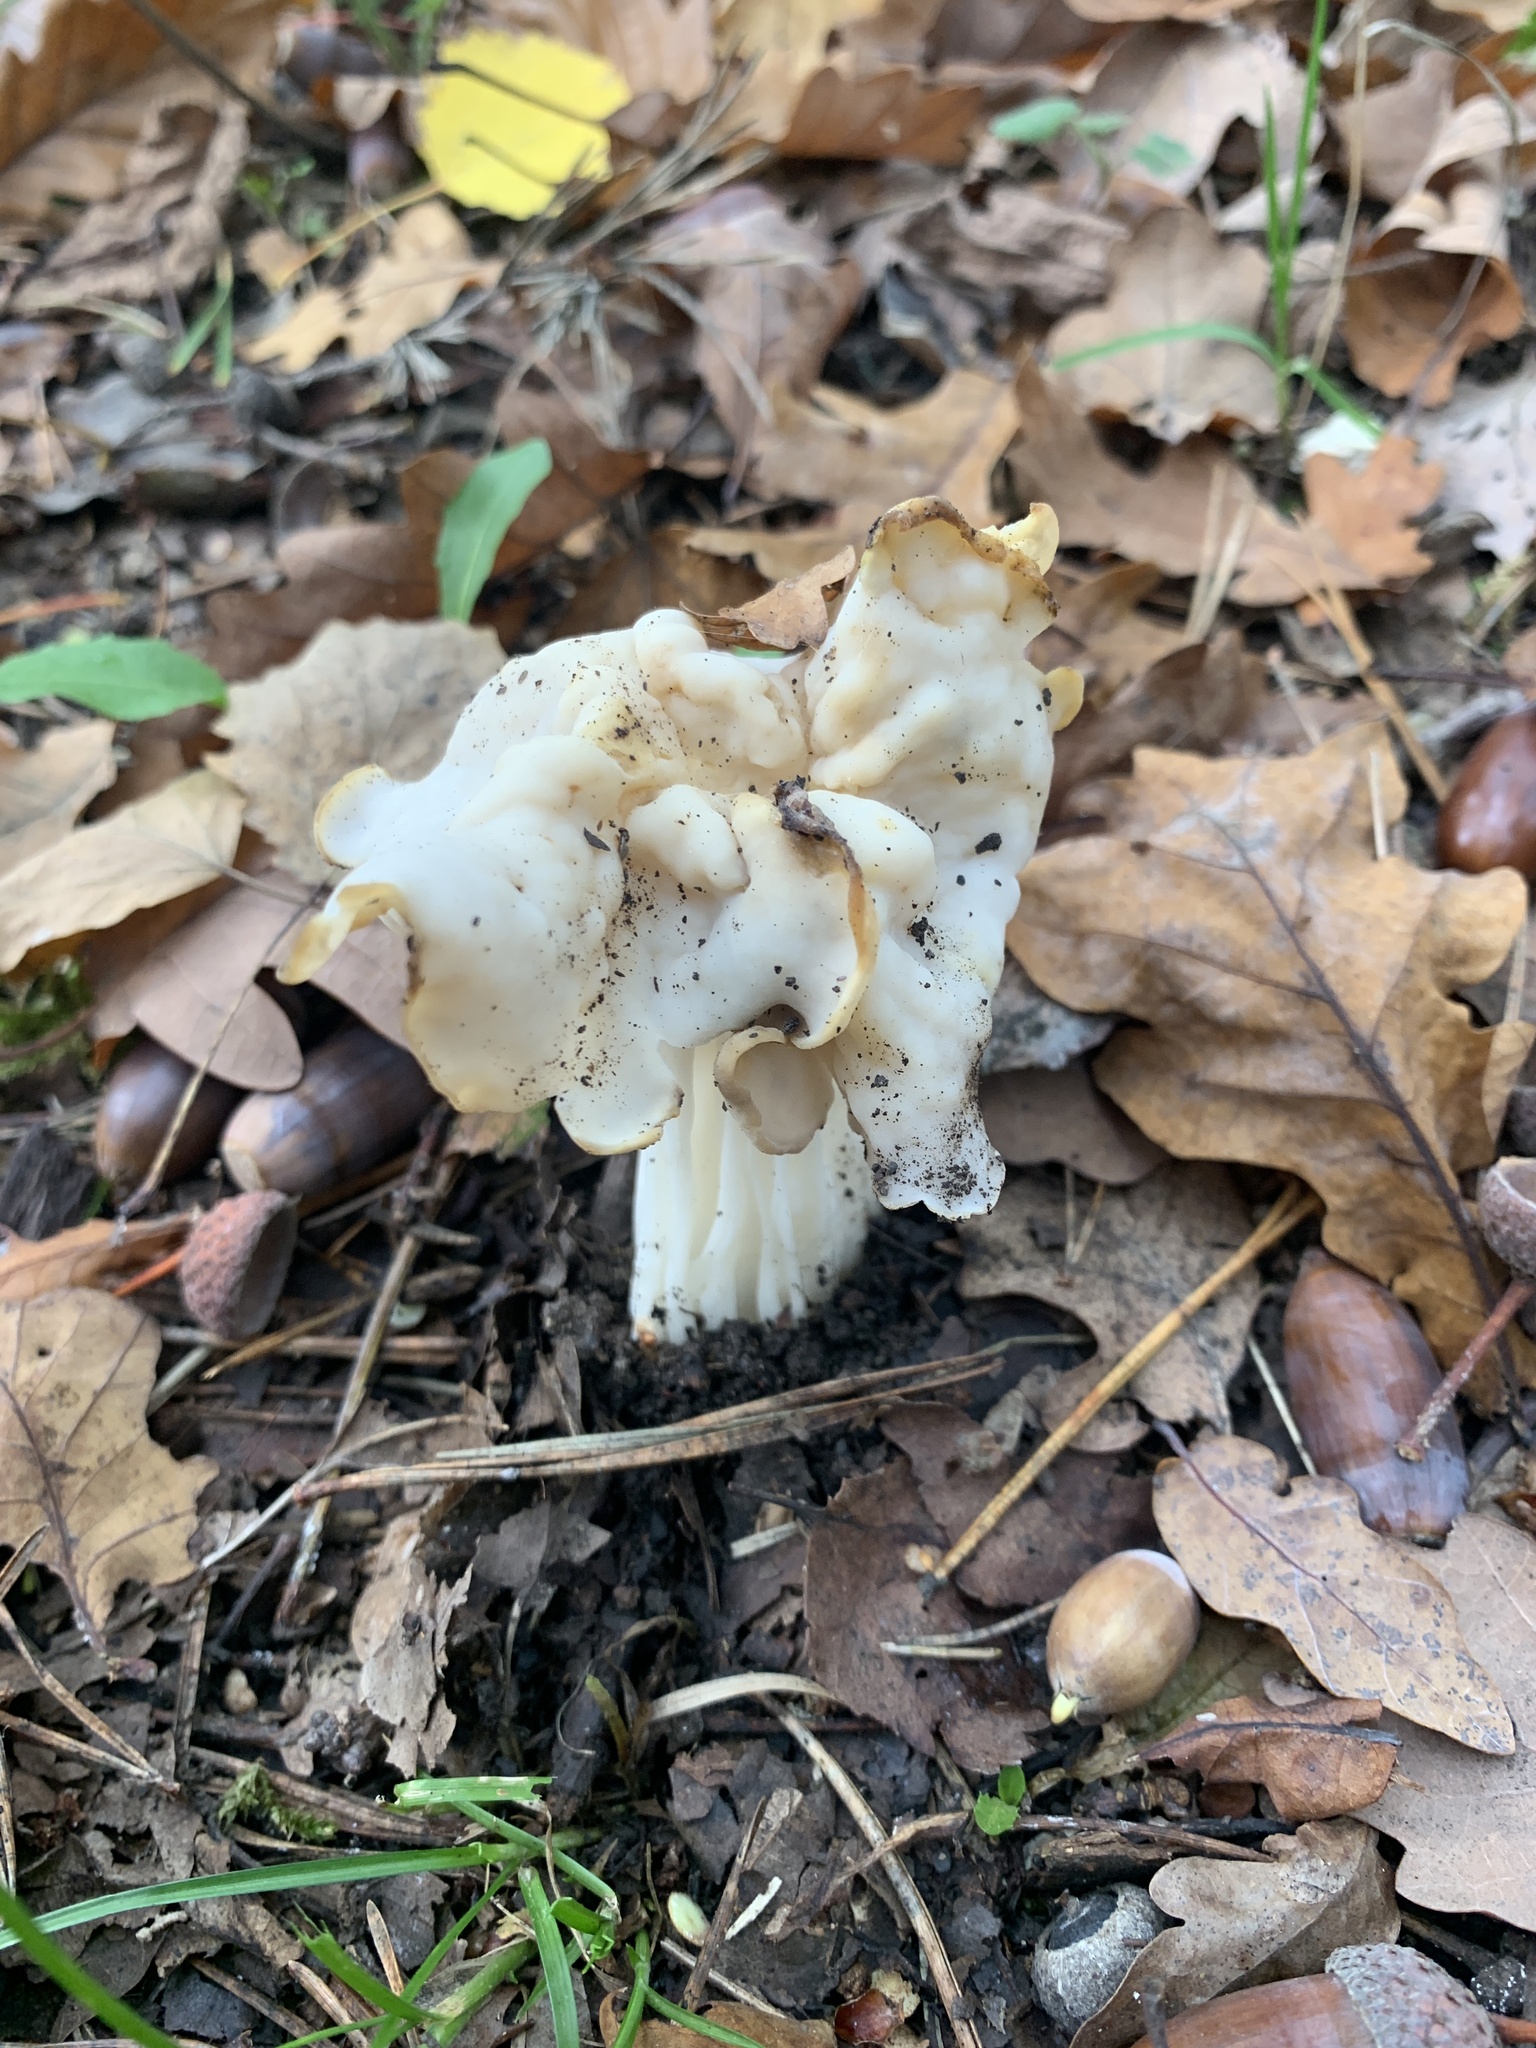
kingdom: Fungi
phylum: Ascomycota
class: Pezizomycetes
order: Pezizales
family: Helvellaceae
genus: Helvella
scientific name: Helvella crispa
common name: White saddle
